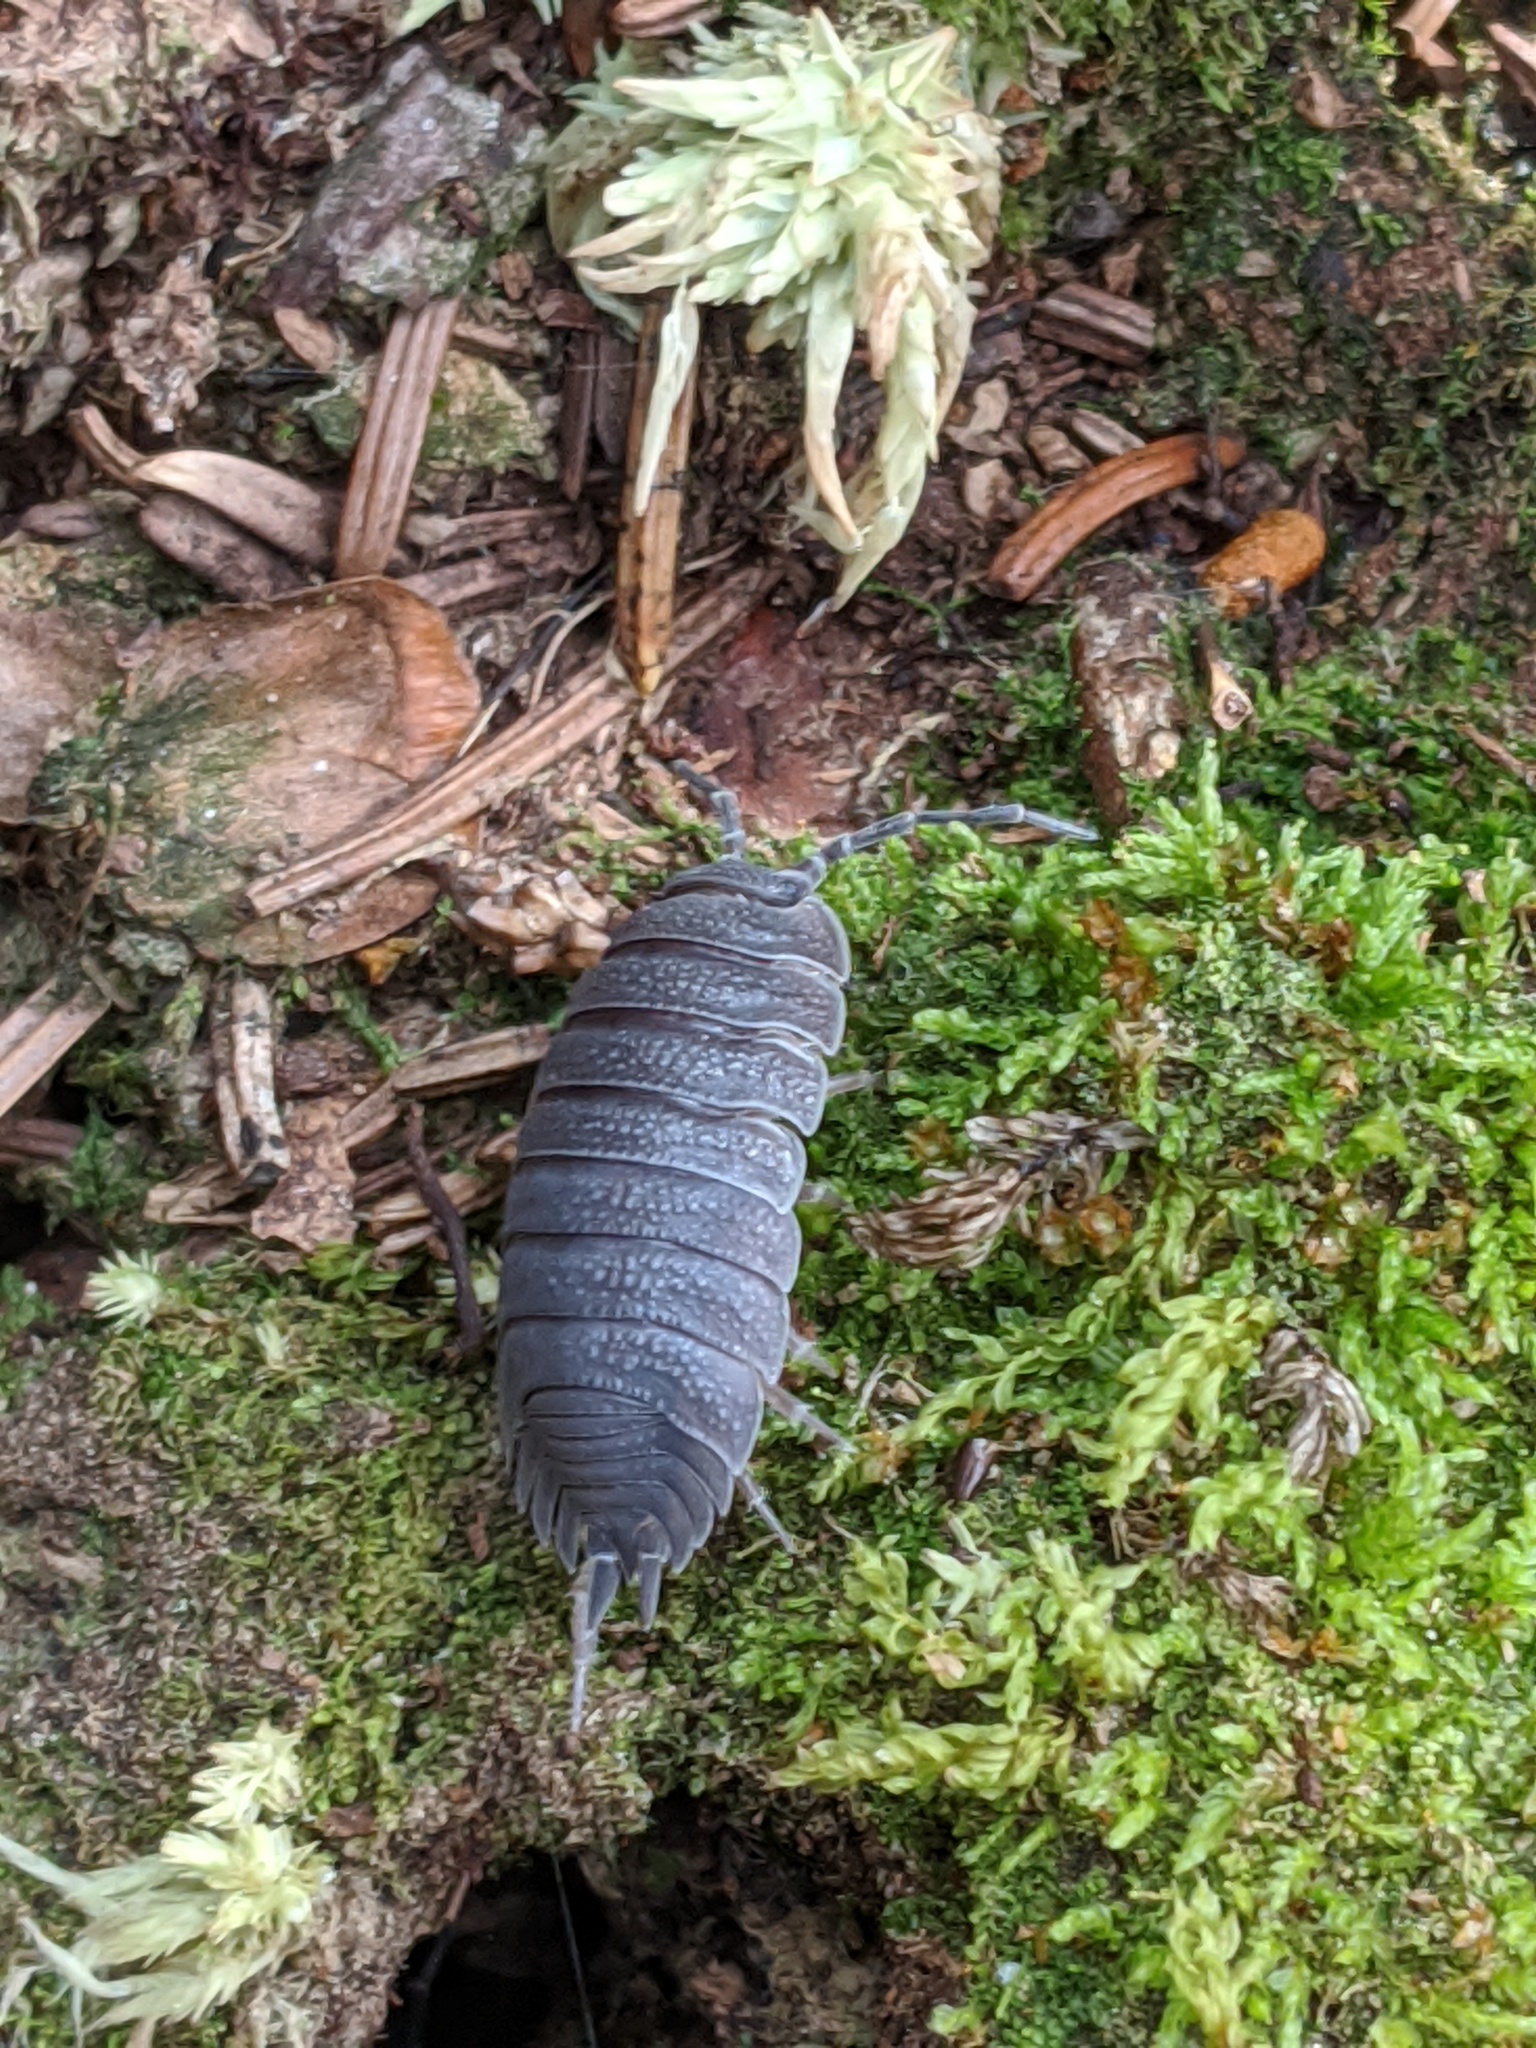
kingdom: Animalia
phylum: Arthropoda
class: Malacostraca
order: Isopoda
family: Porcellionidae
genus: Porcellio
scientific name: Porcellio scaber
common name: Common rough woodlouse
